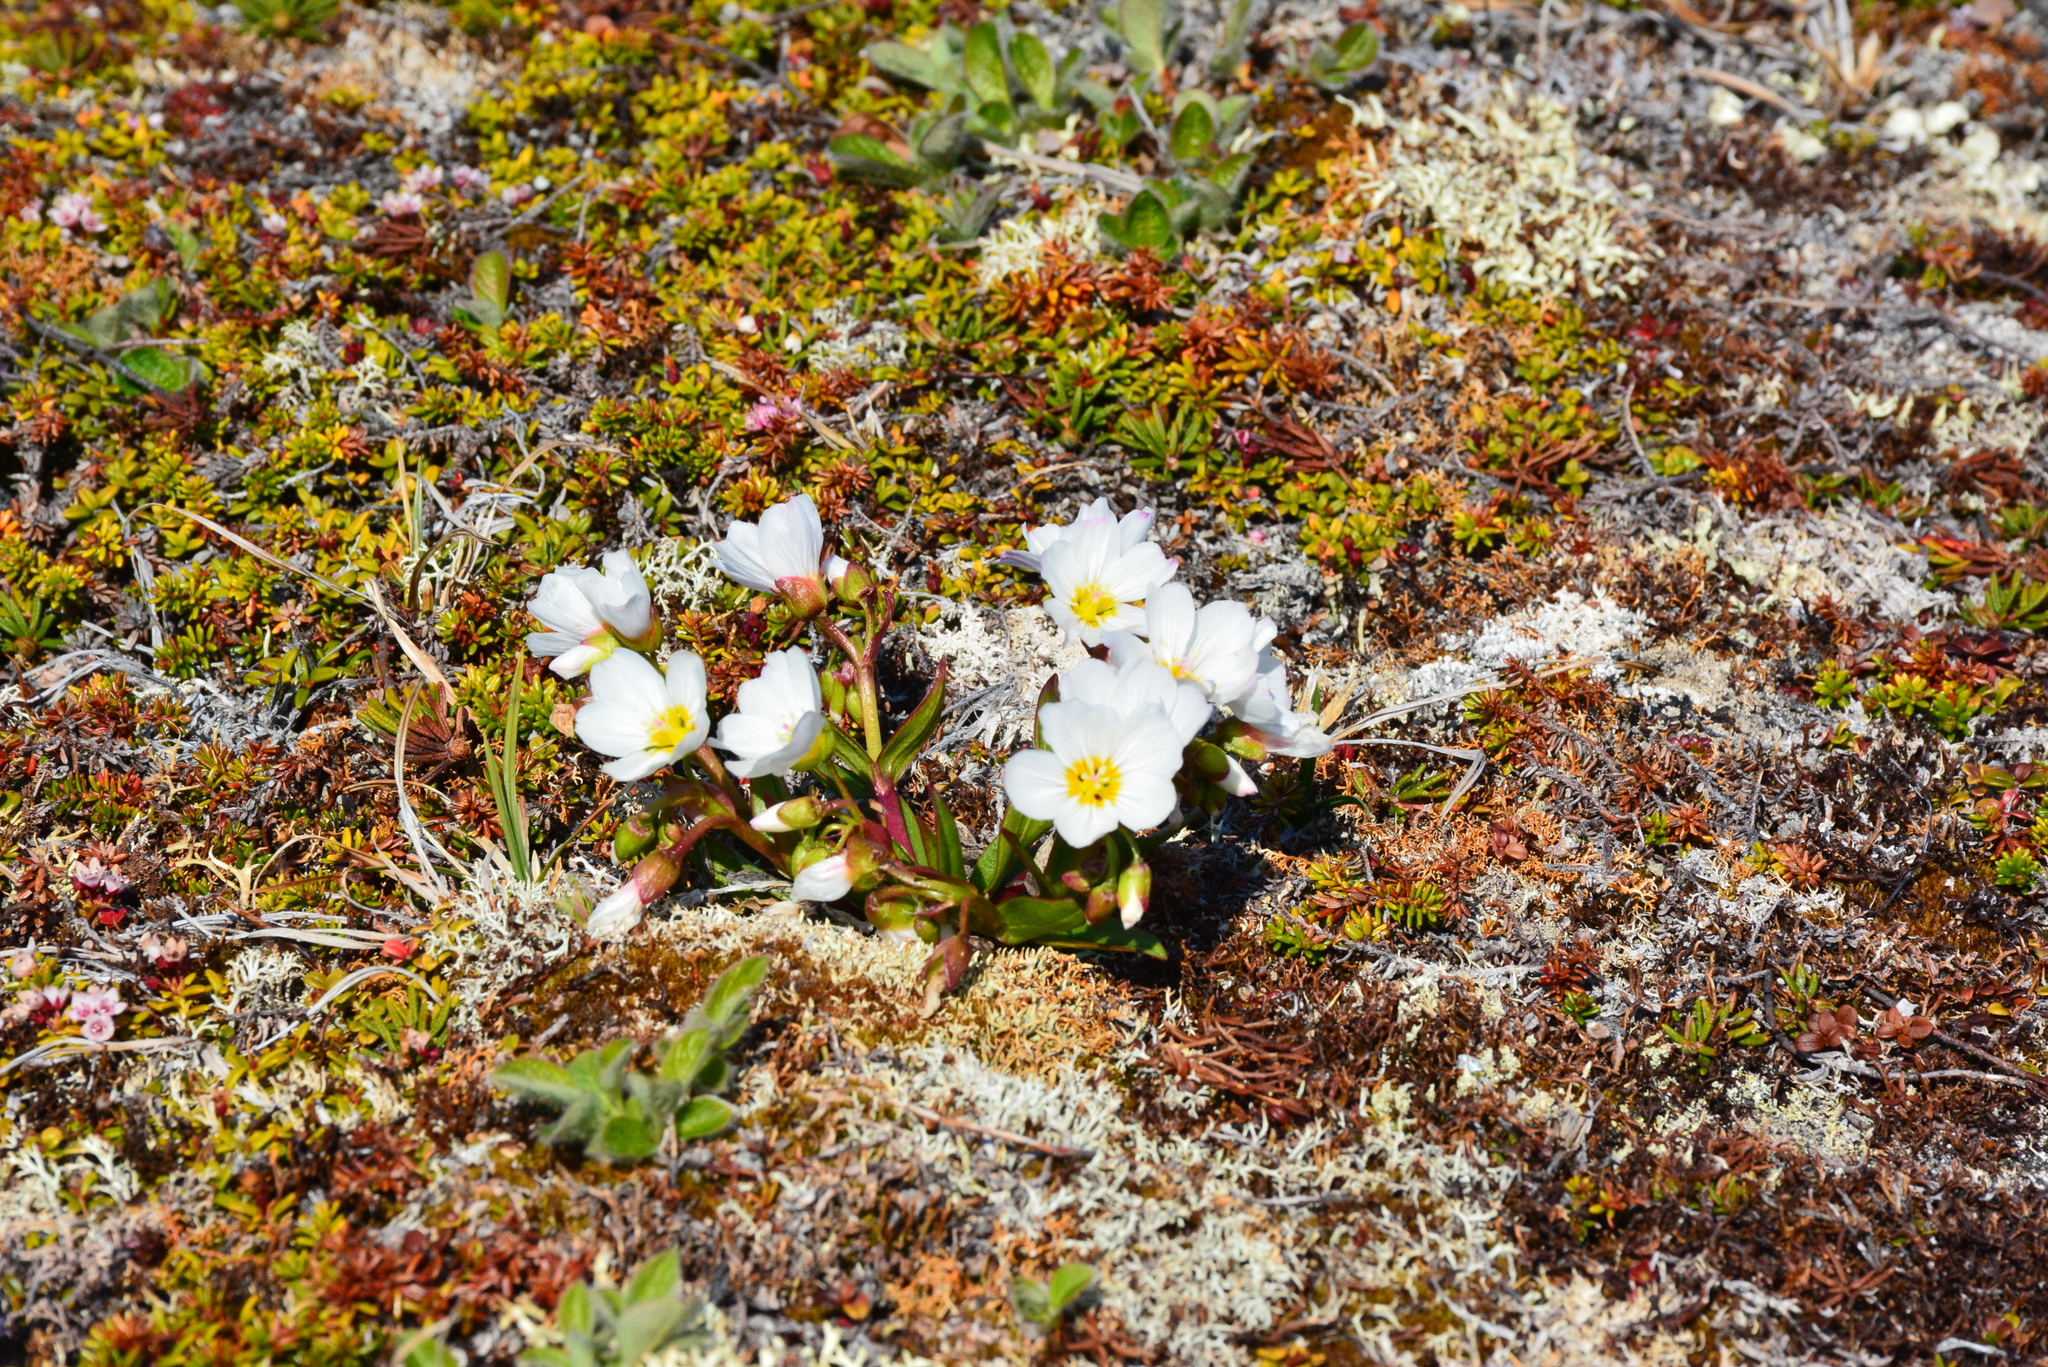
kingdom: Plantae
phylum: Tracheophyta
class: Magnoliopsida
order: Caryophyllales
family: Montiaceae
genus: Claytonia
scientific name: Claytonia acutifolia
